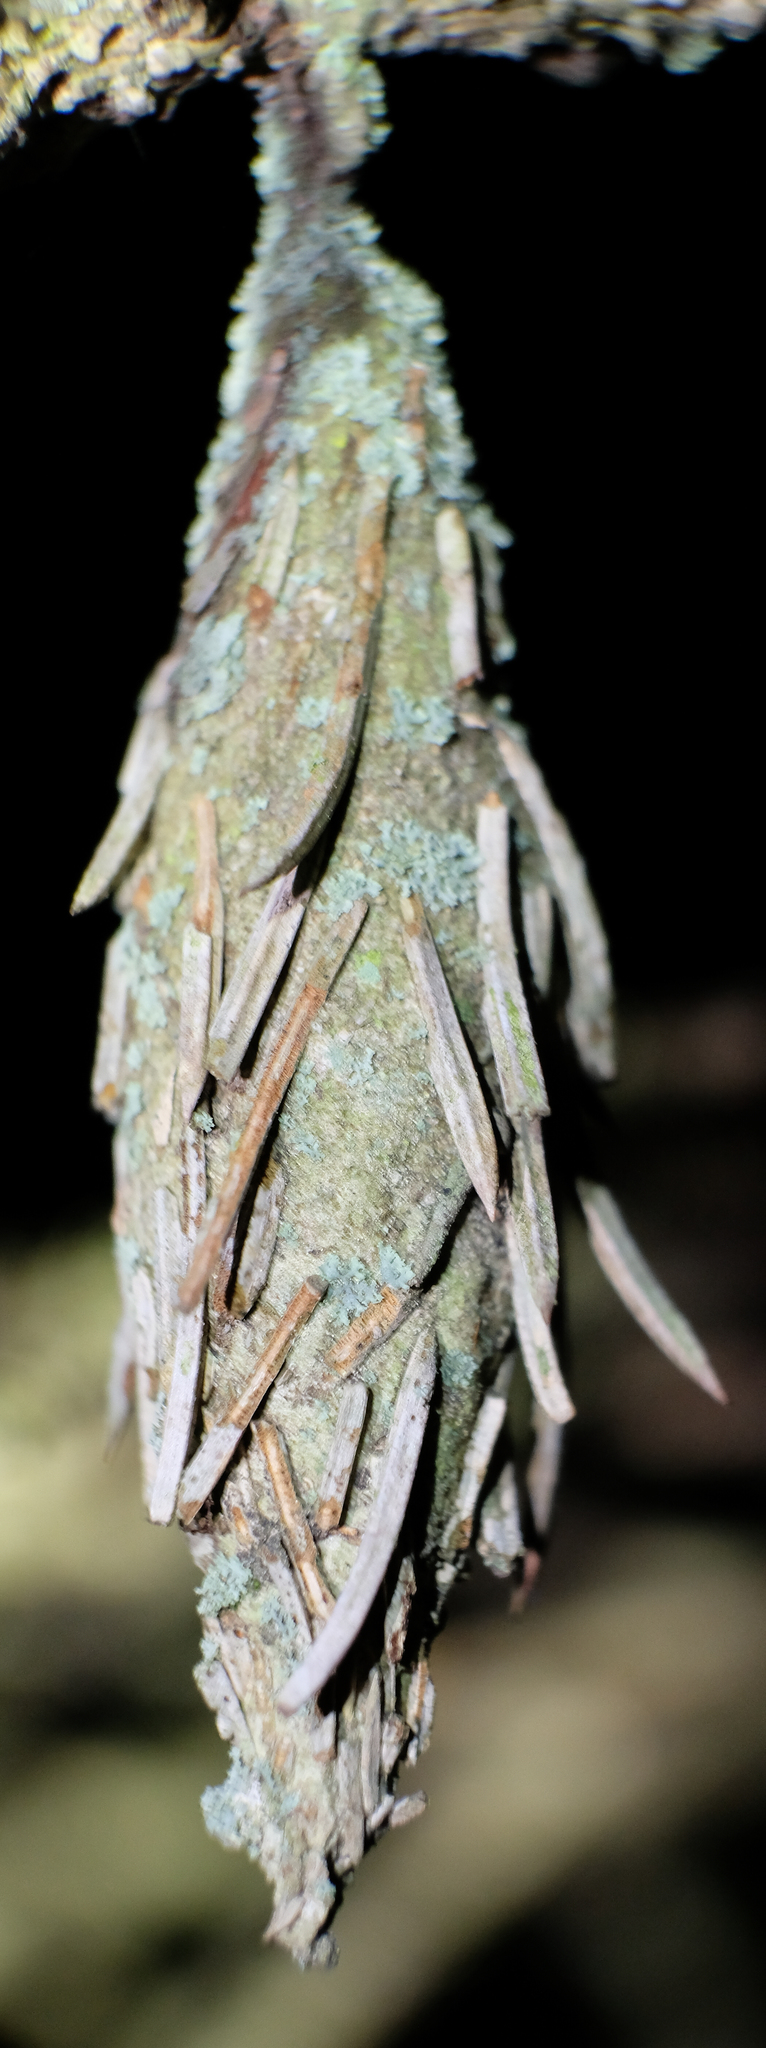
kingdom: Animalia
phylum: Arthropoda
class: Insecta
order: Lepidoptera
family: Psychidae
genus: Thyridopteryx
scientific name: Thyridopteryx ephemeraeformis
